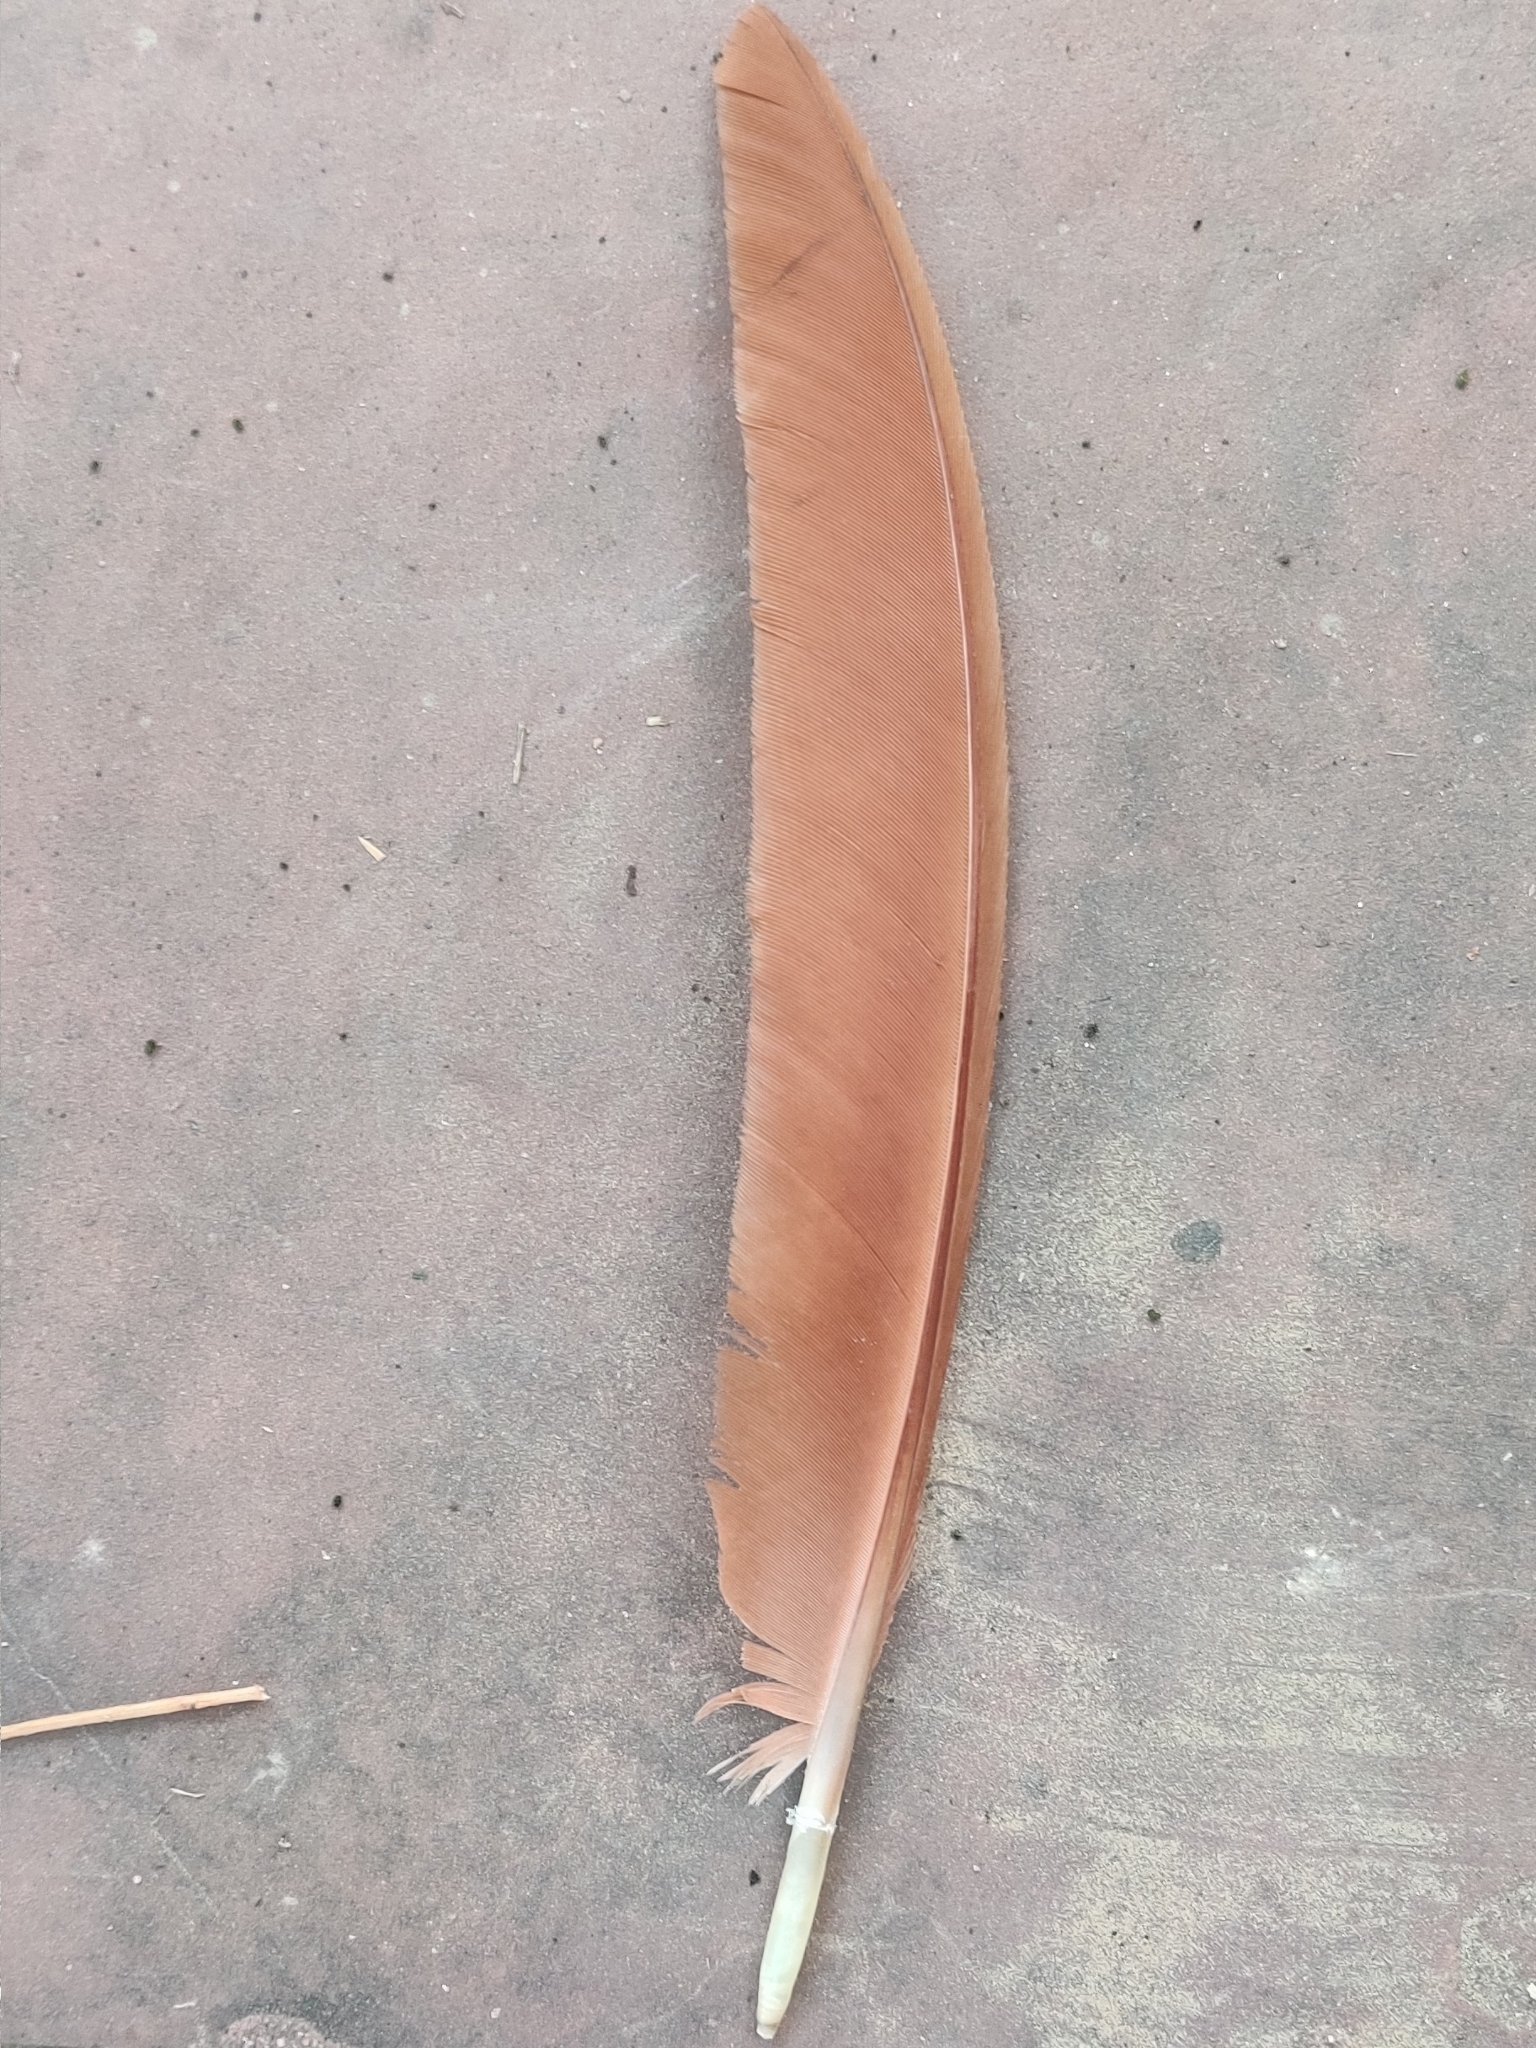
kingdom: Animalia
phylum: Chordata
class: Aves
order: Galliformes
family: Phasianidae
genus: Pavo
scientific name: Pavo cristatus
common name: Indian peafowl
